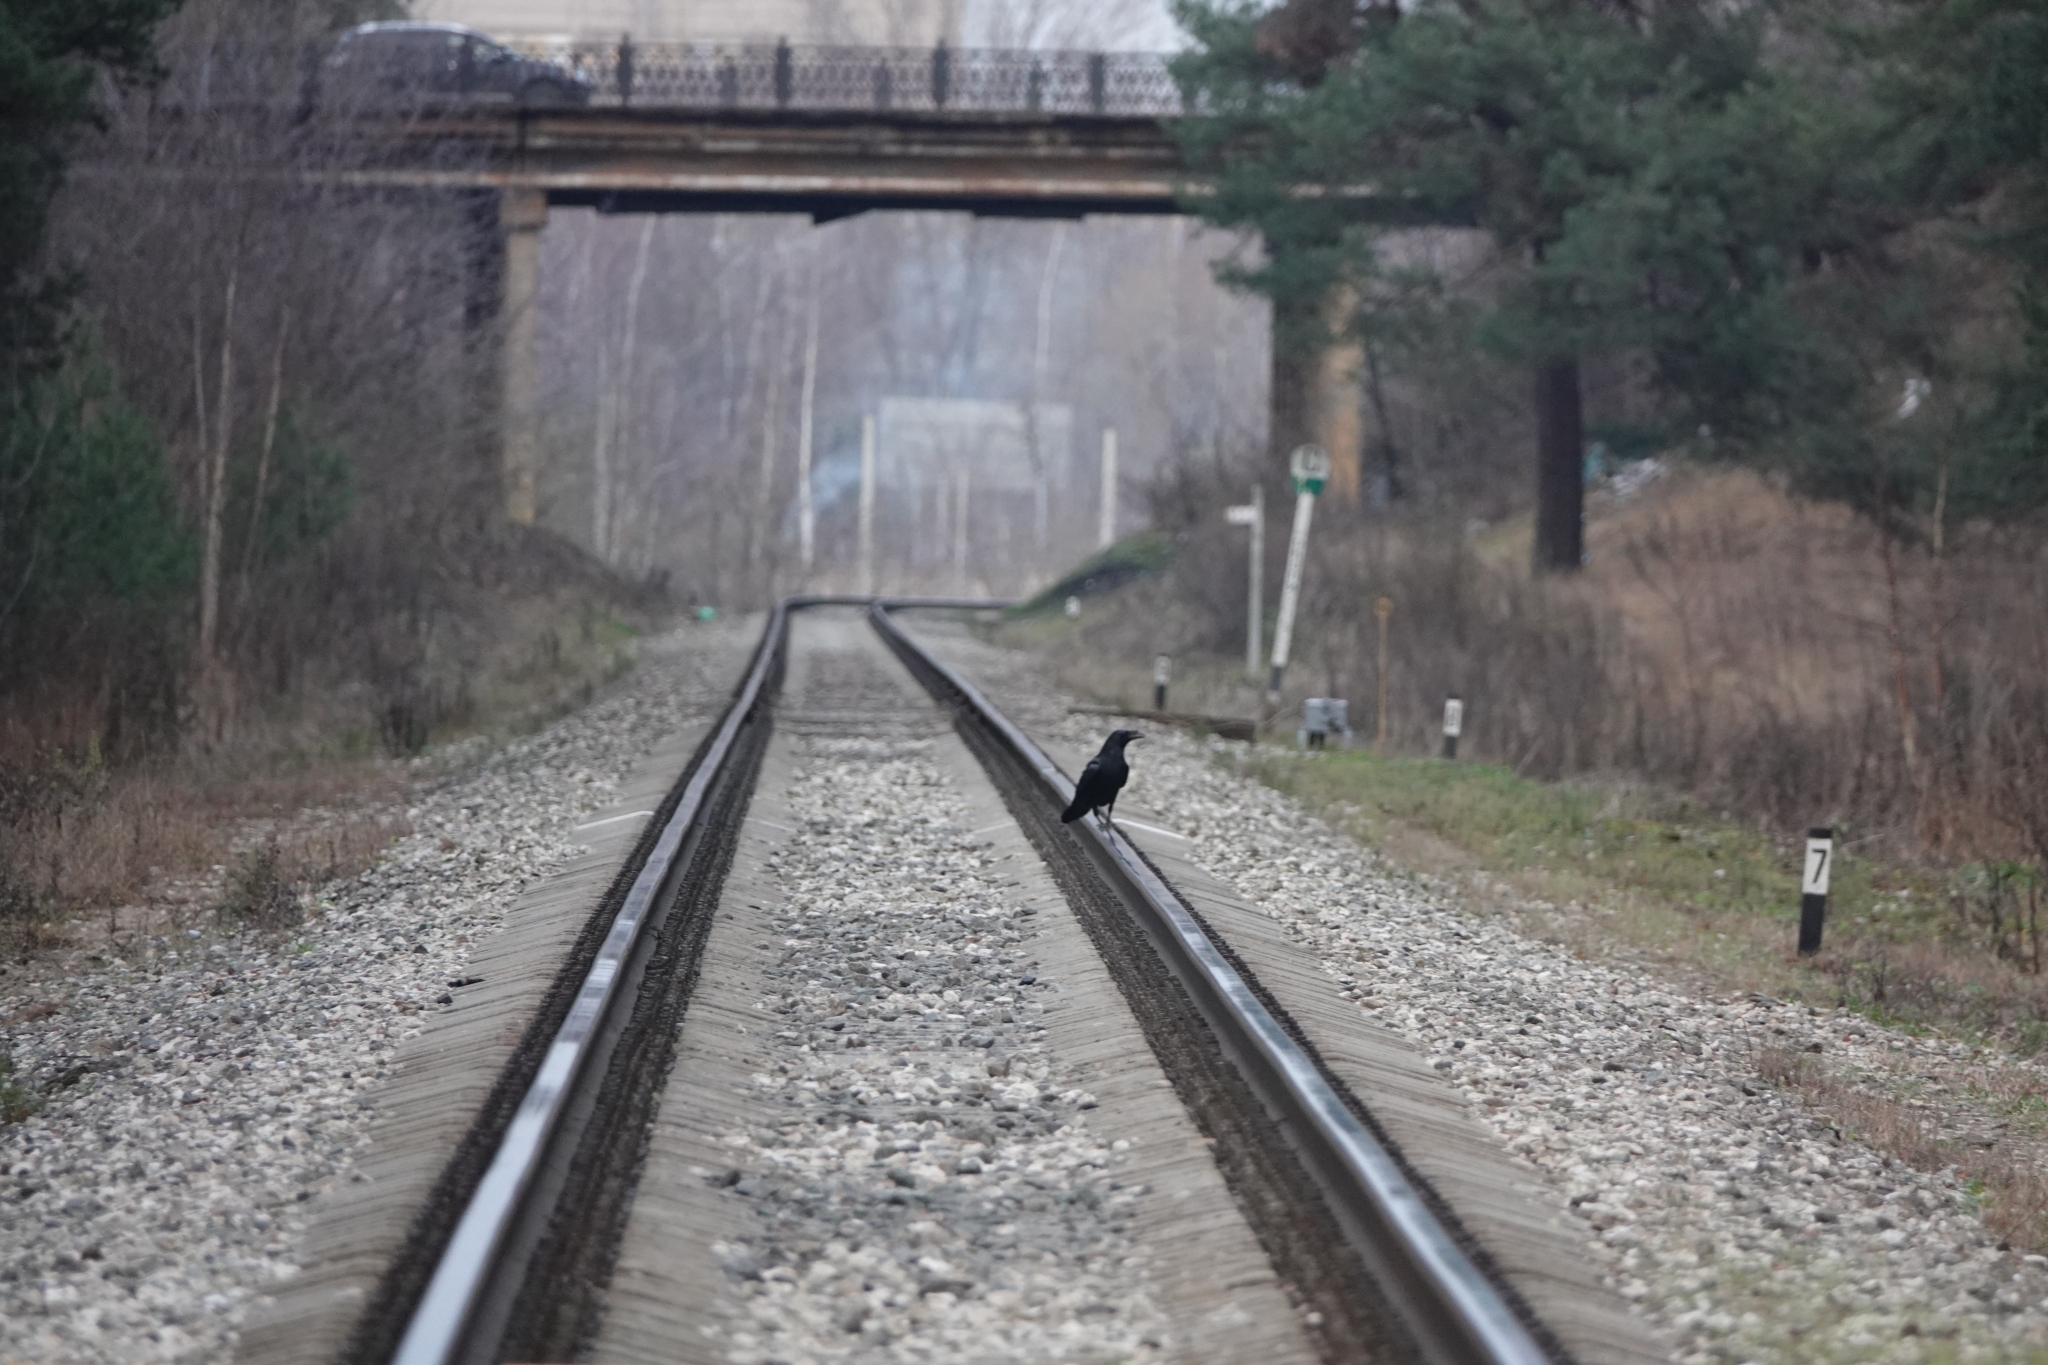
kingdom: Animalia
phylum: Chordata
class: Aves
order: Passeriformes
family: Corvidae
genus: Corvus
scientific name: Corvus corax
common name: Common raven
